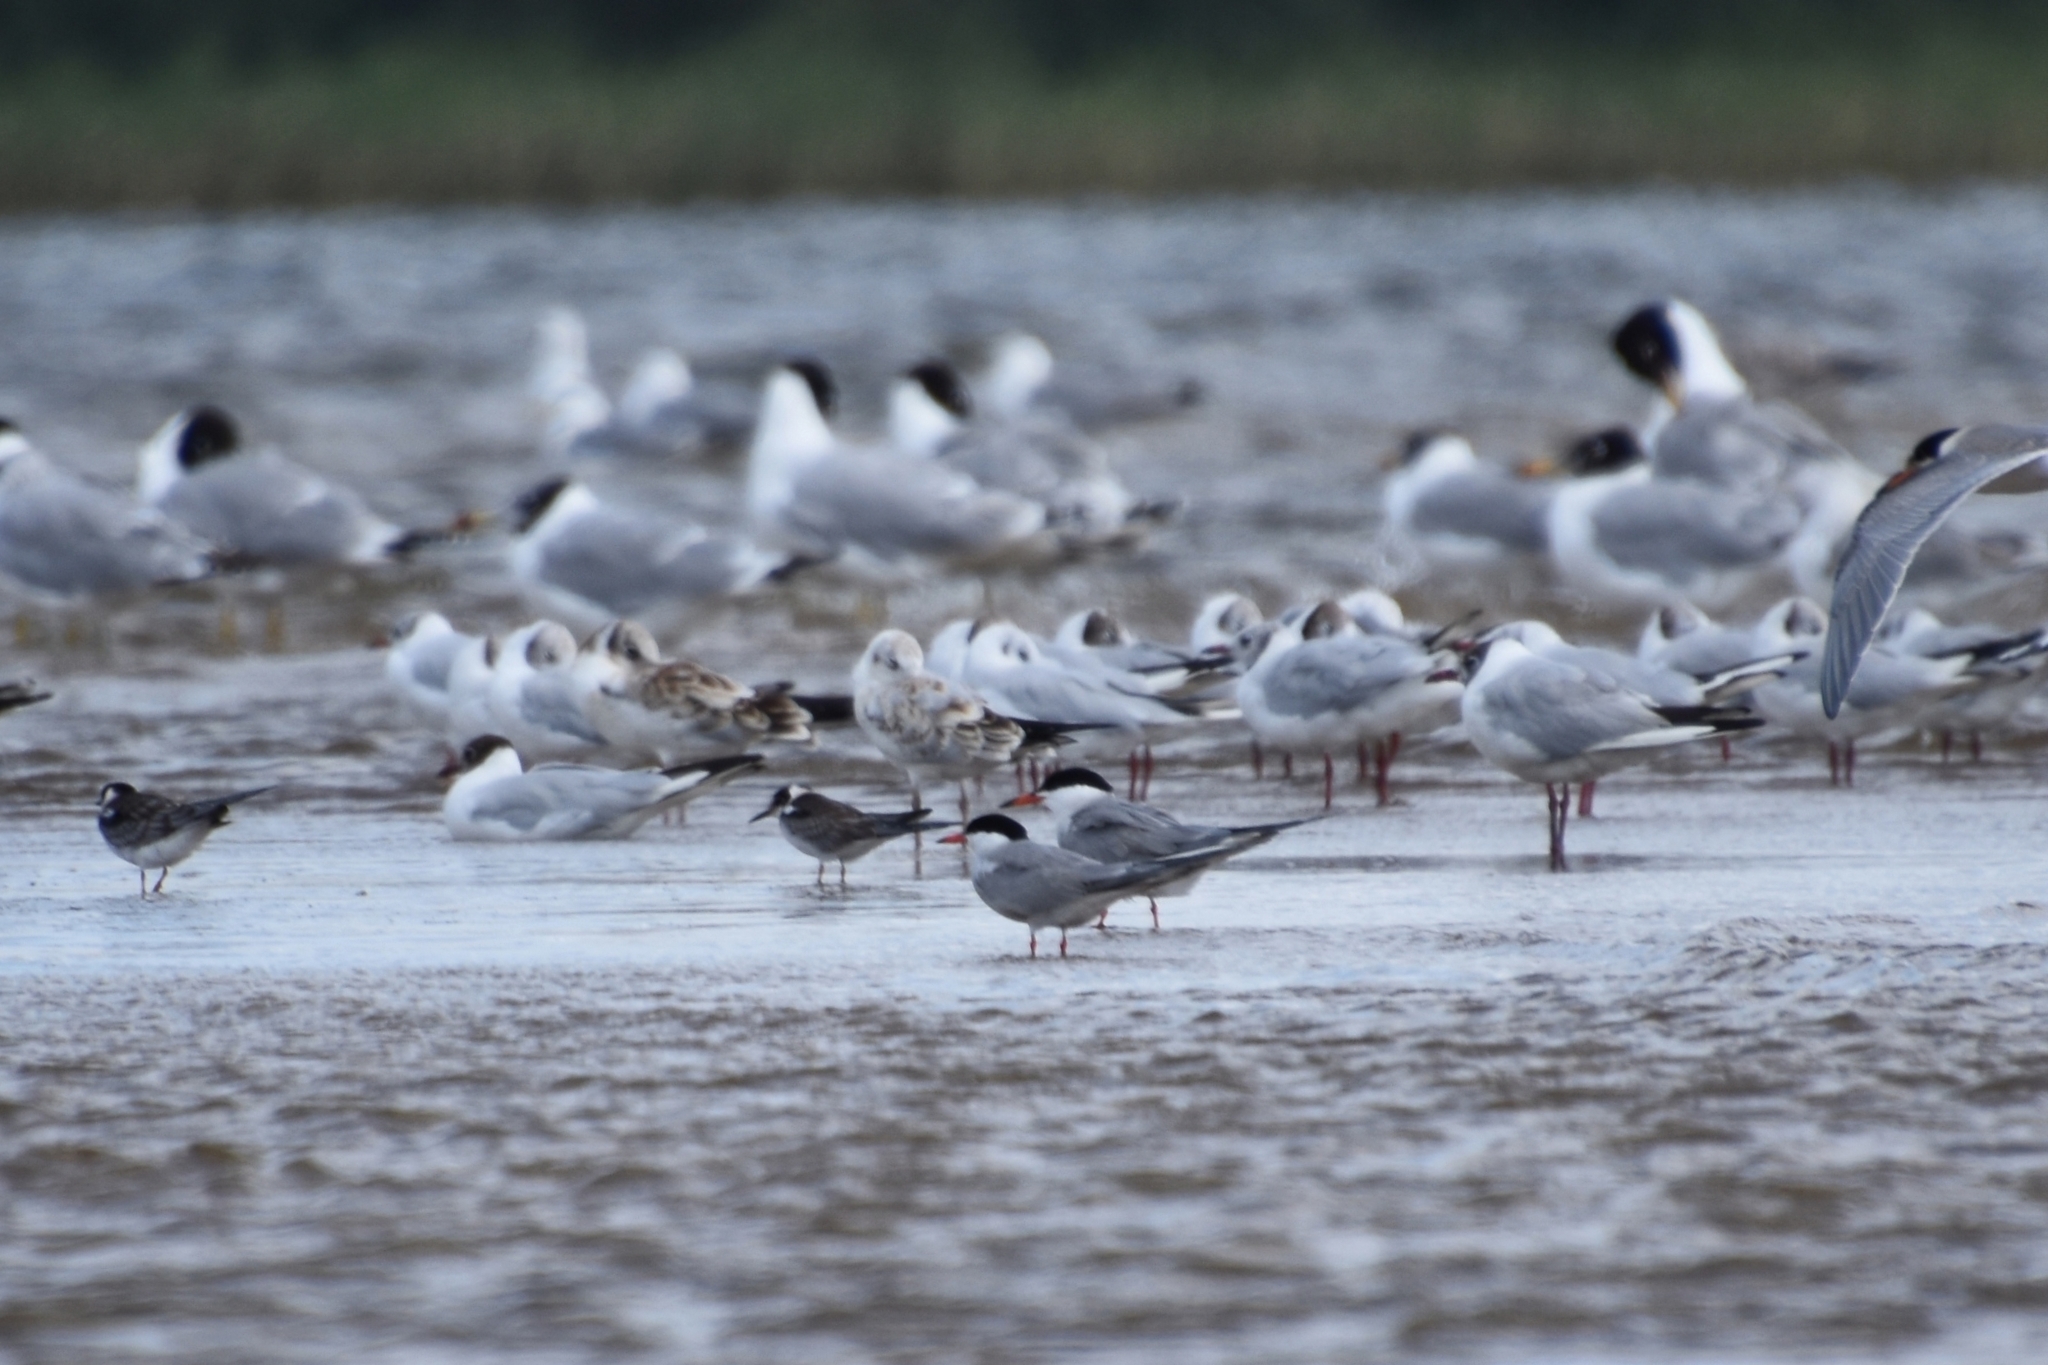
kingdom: Animalia
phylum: Chordata
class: Aves
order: Charadriiformes
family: Laridae
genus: Sterna
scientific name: Sterna hirundo
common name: Common tern
